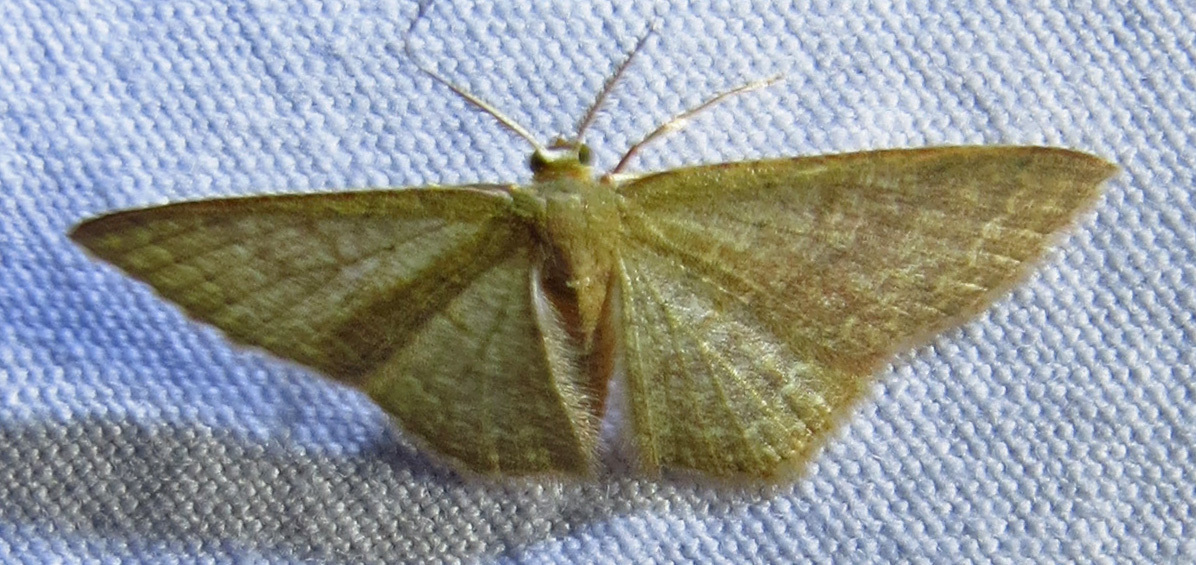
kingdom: Animalia
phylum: Arthropoda
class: Insecta
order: Lepidoptera
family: Geometridae
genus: Pleuroprucha
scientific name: Pleuroprucha insulsaria
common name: Common tan wave
